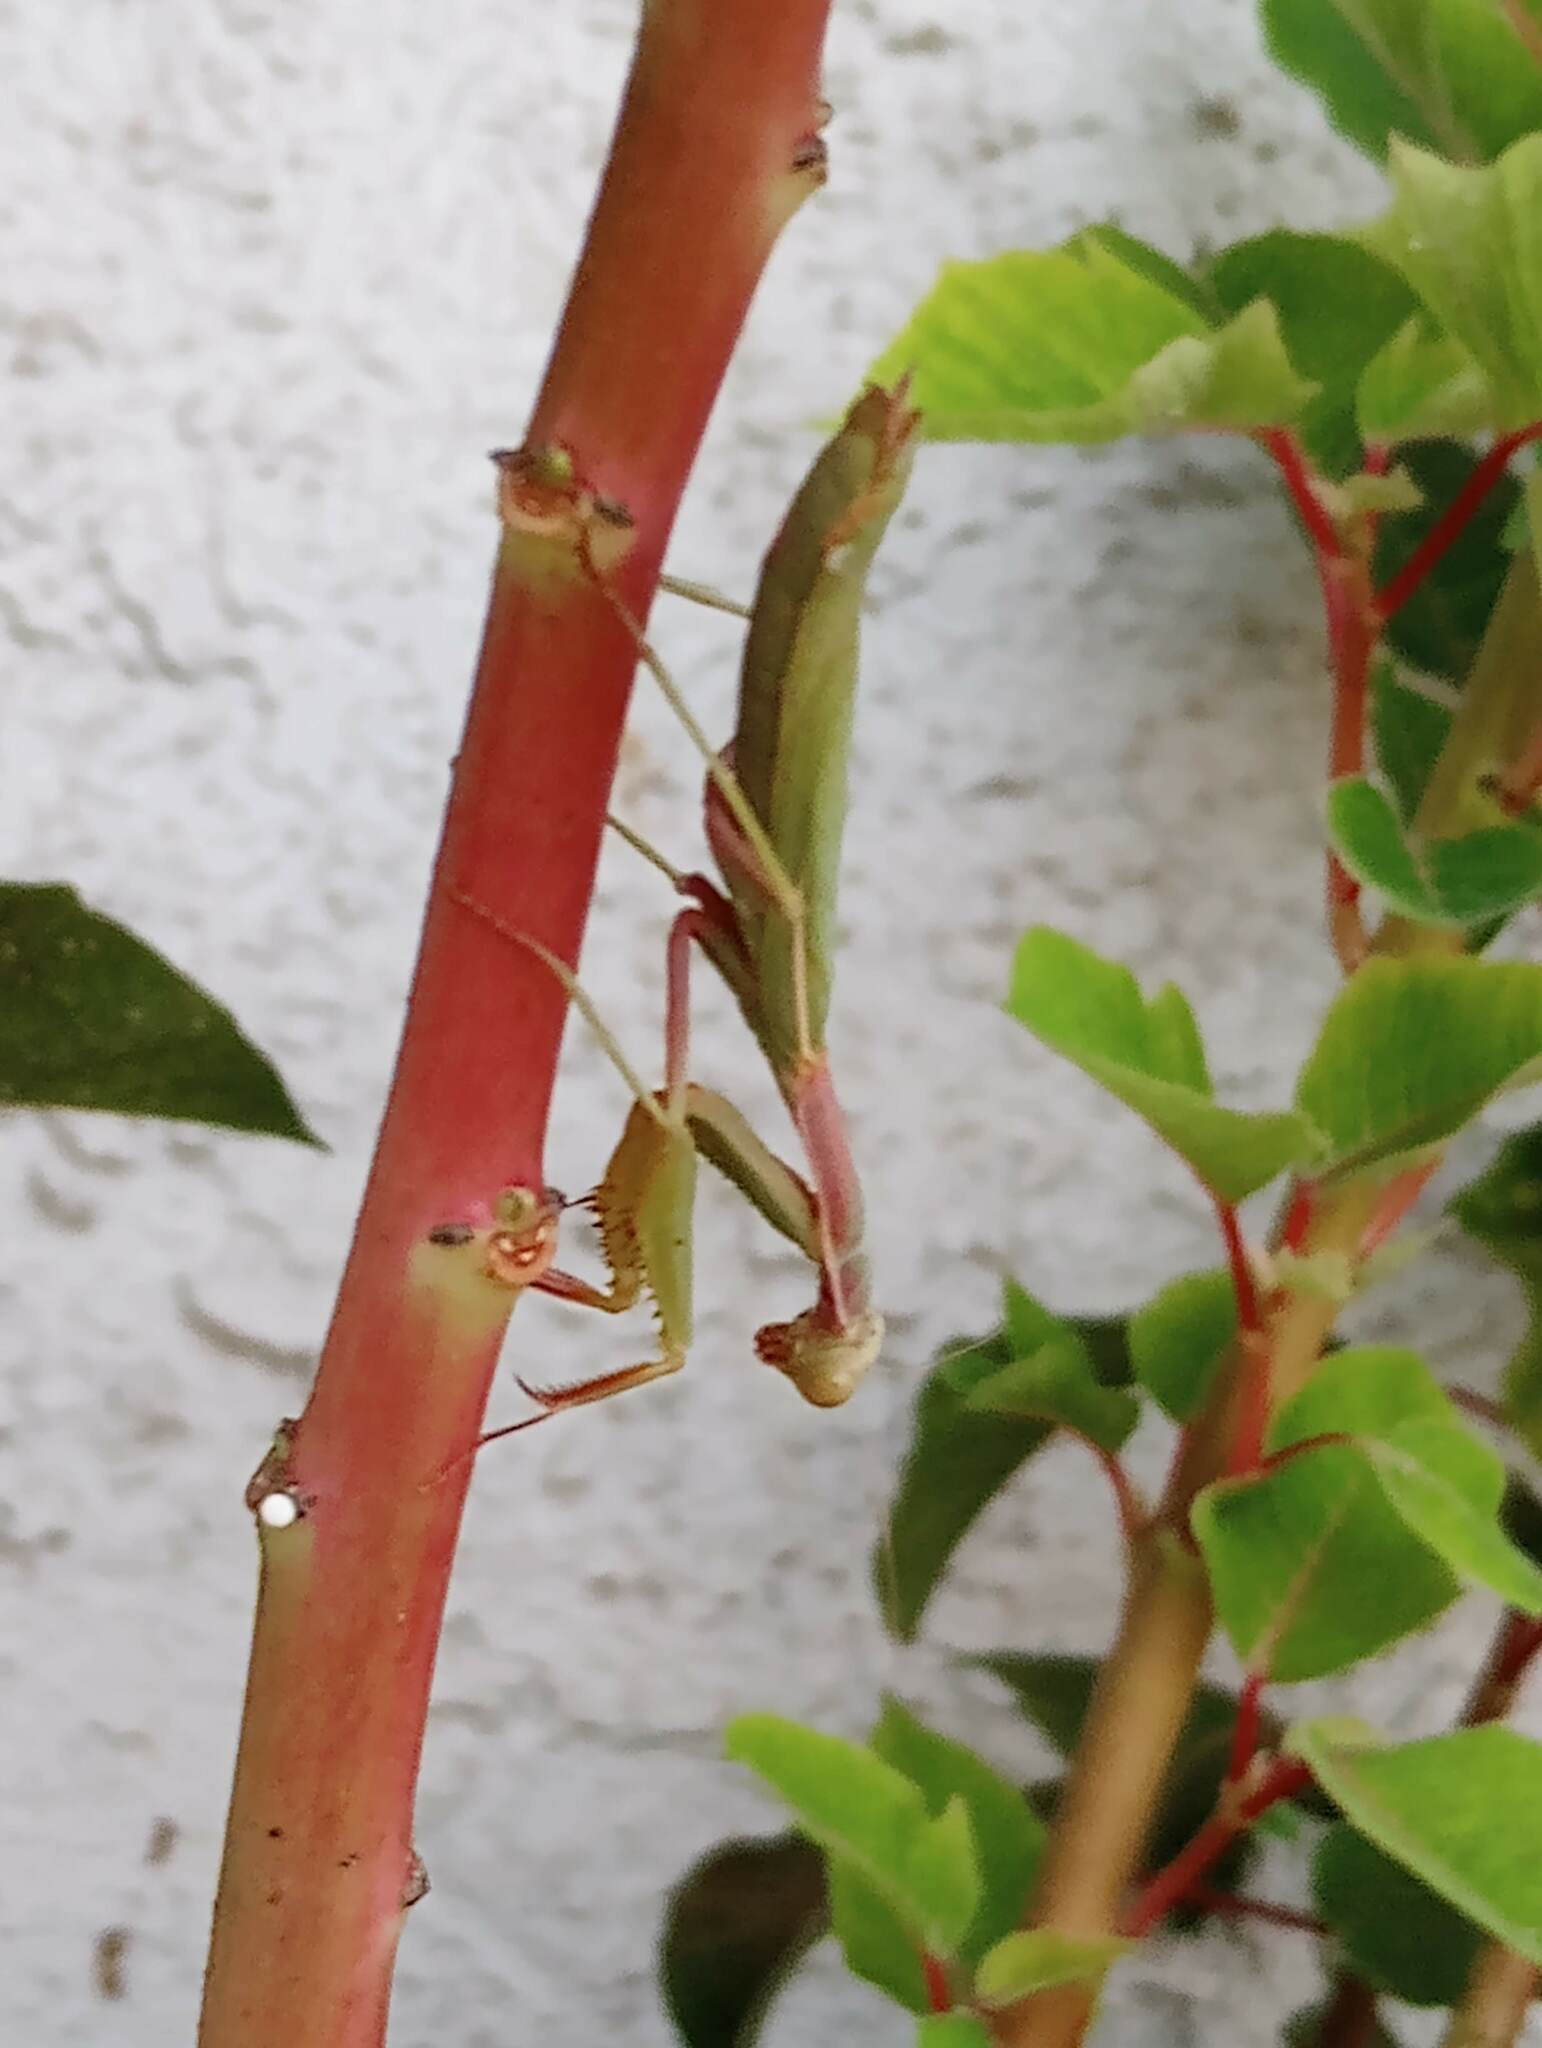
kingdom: Animalia
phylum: Arthropoda
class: Insecta
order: Mantodea
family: Eremiaphilidae
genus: Iris
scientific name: Iris oratoria
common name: Mediterranean mantis
